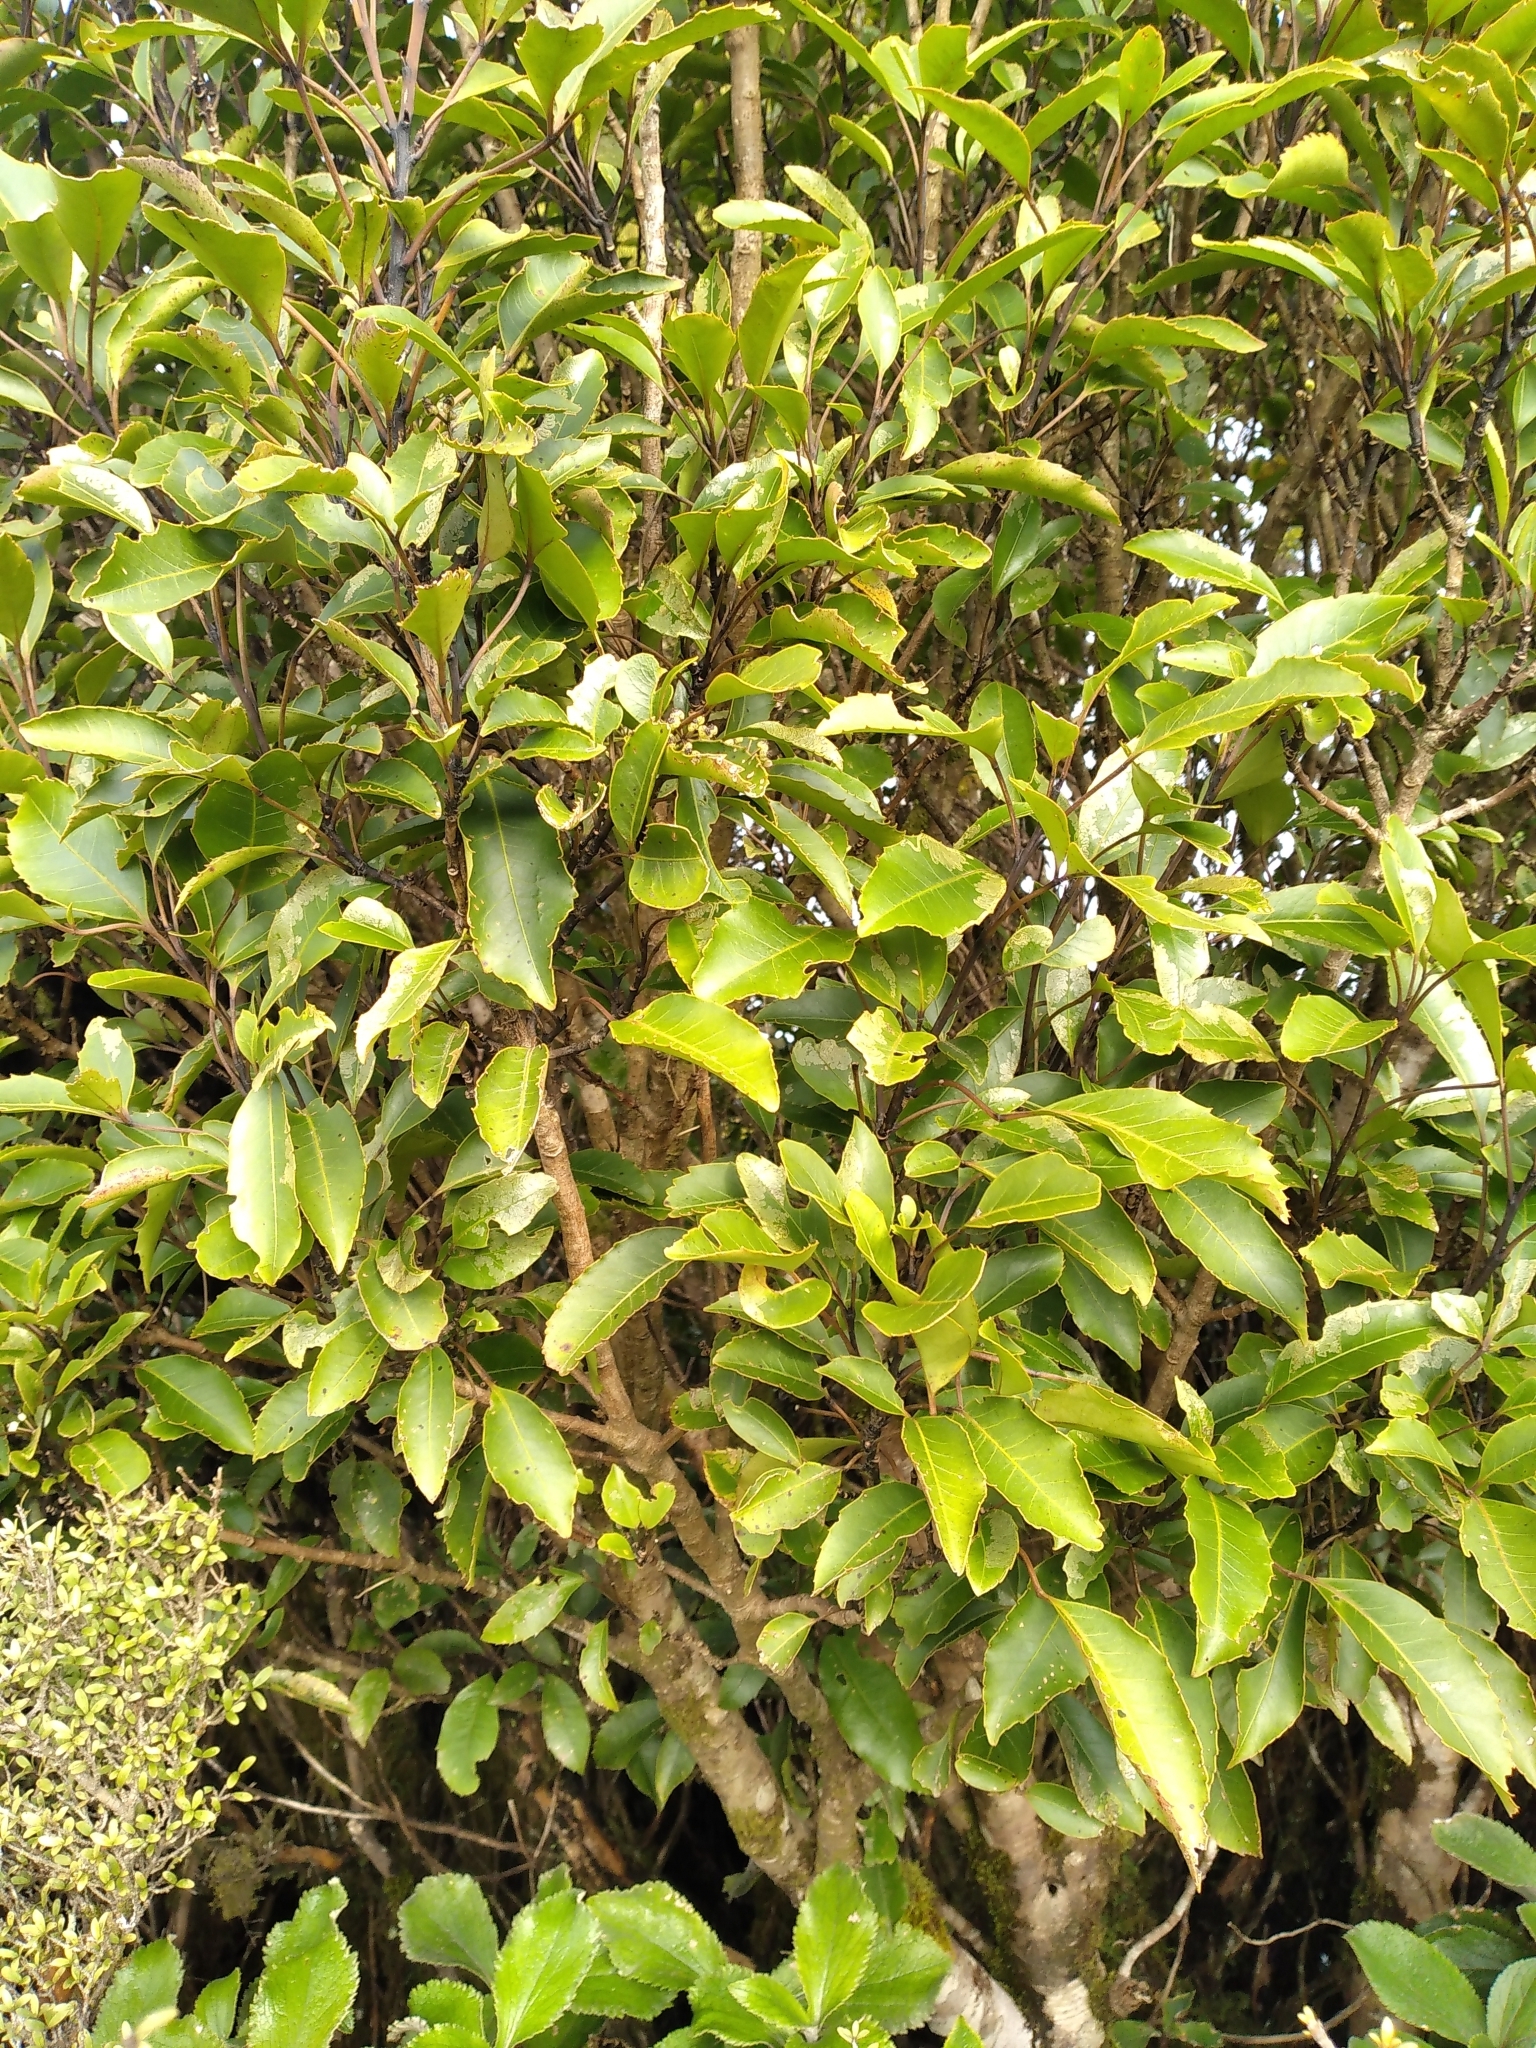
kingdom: Plantae
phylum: Tracheophyta
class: Magnoliopsida
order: Apiales
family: Araliaceae
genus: Raukaua
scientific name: Raukaua simplex
